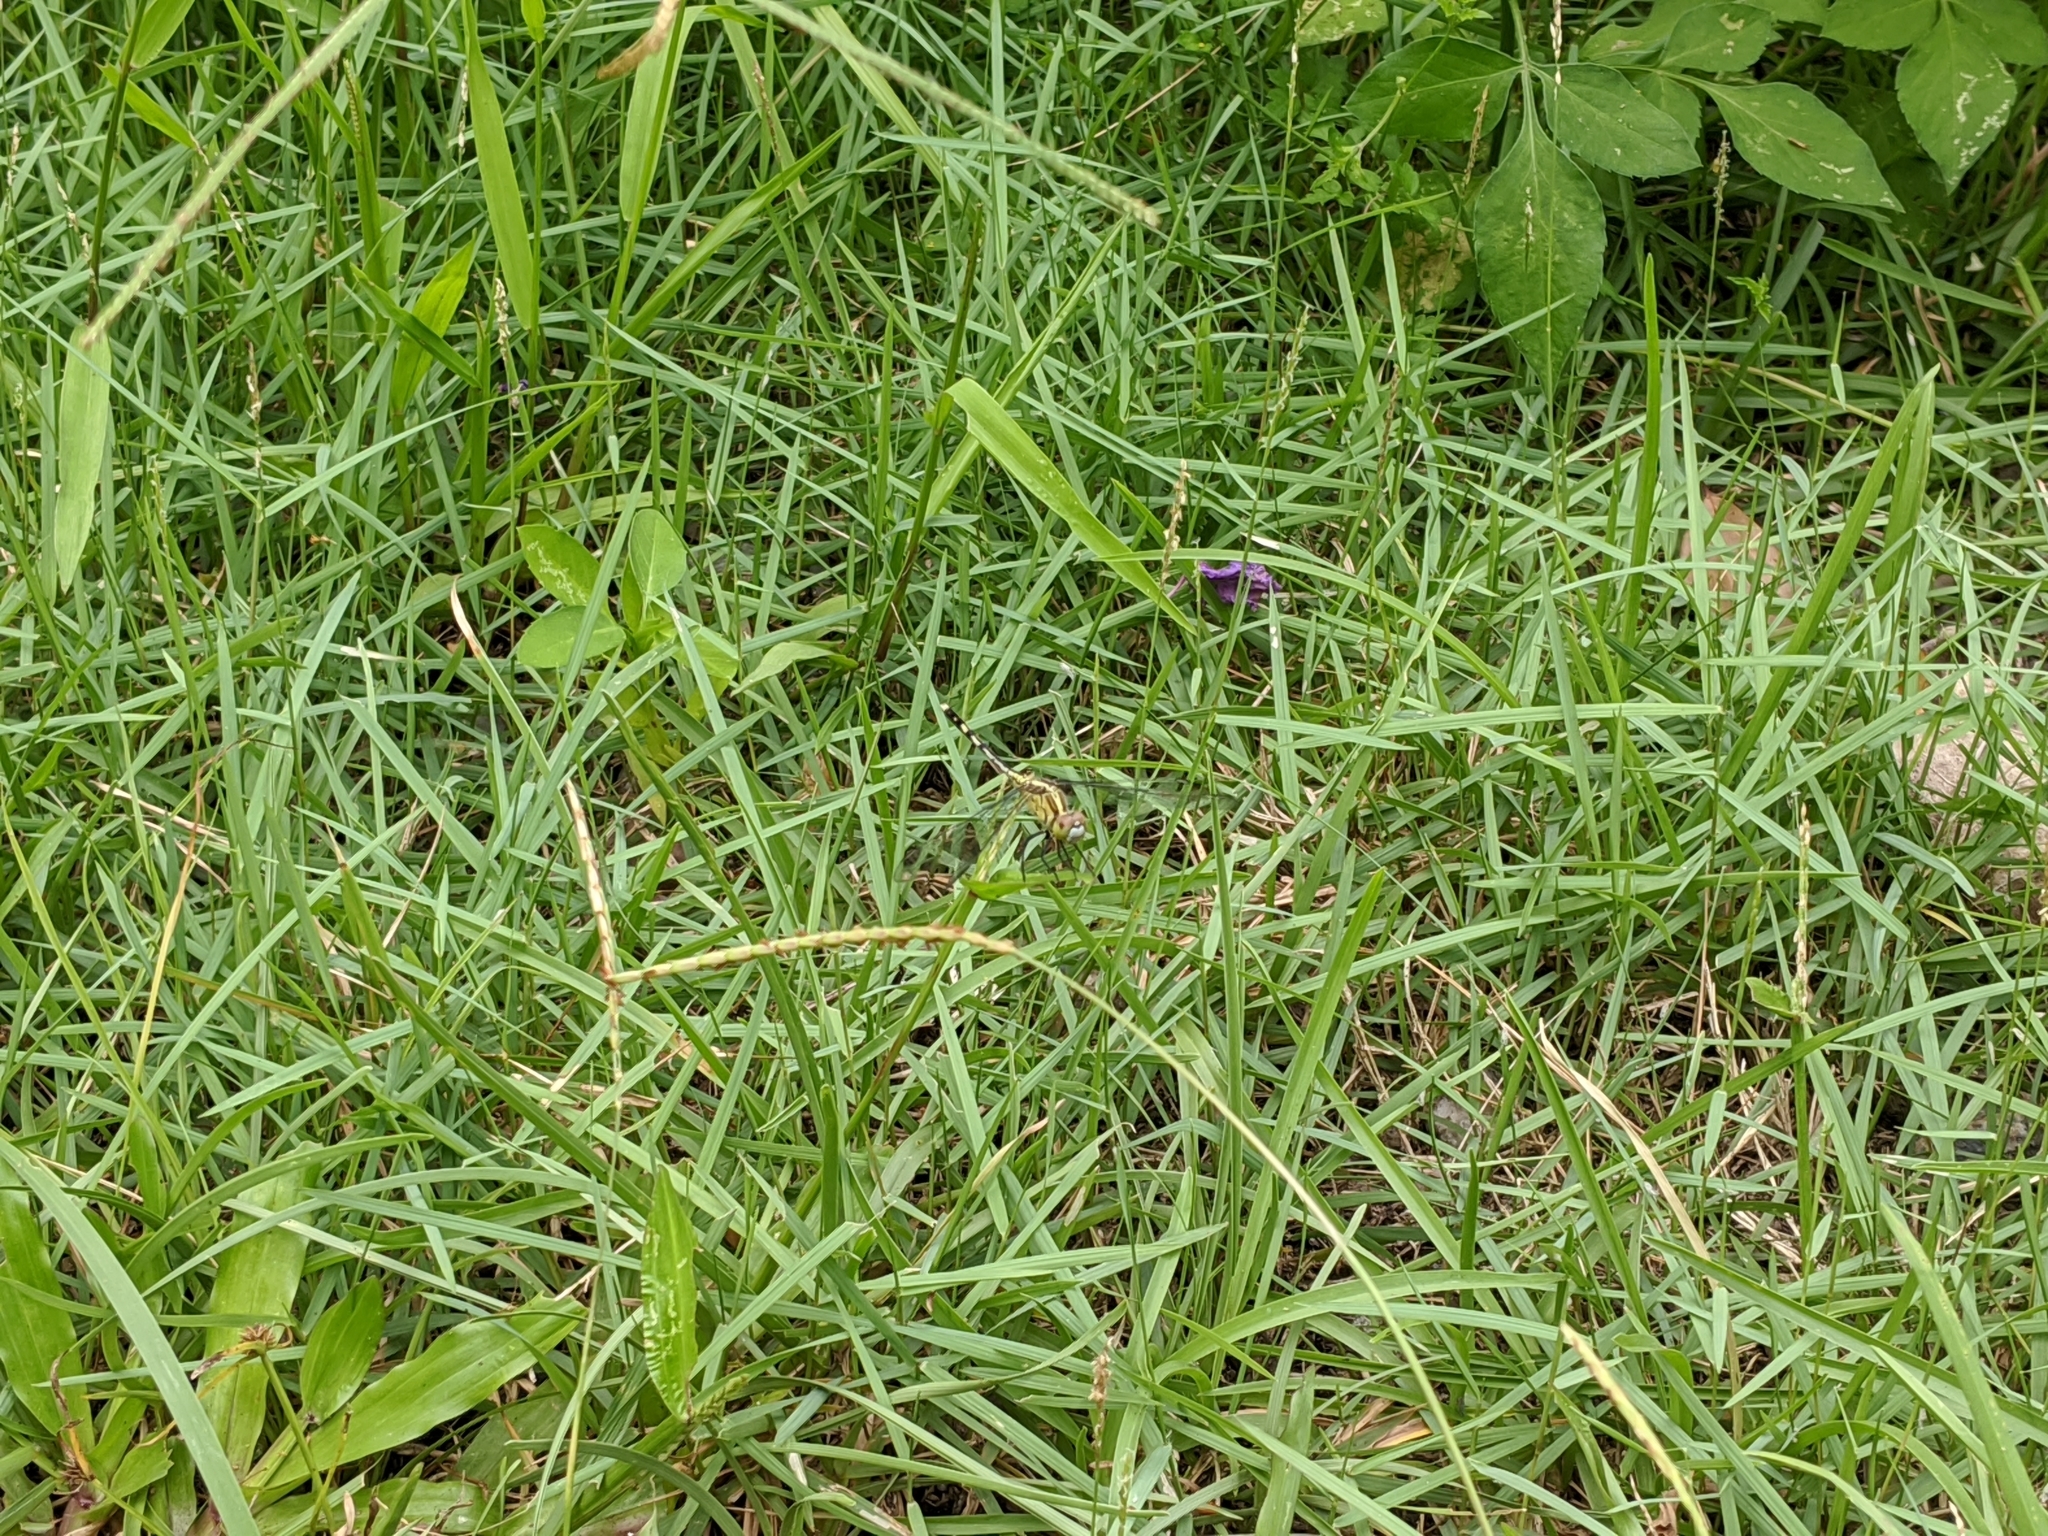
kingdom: Animalia
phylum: Arthropoda
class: Insecta
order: Odonata
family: Libellulidae
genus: Diplacodes
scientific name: Diplacodes trivialis
